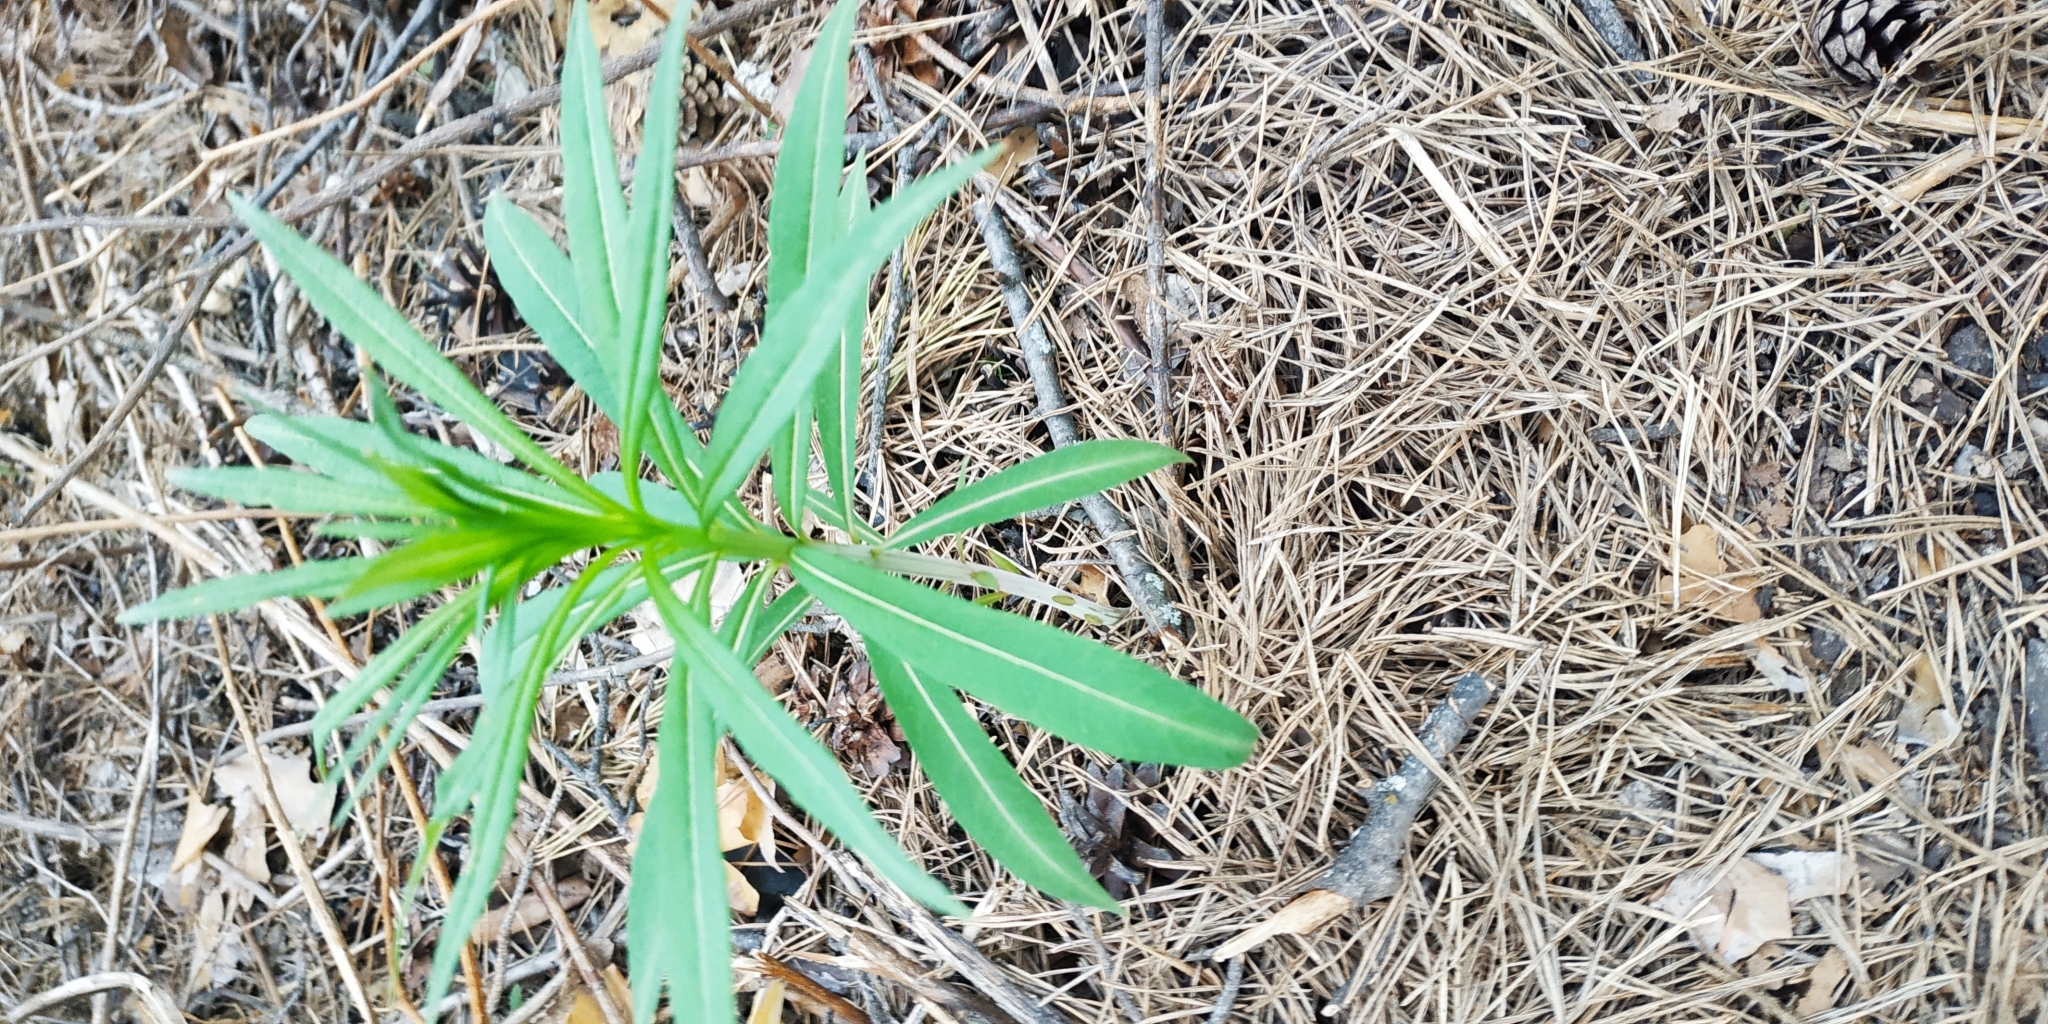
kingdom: Plantae
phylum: Tracheophyta
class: Magnoliopsida
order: Myrtales
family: Onagraceae
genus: Chamaenerion
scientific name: Chamaenerion angustifolium
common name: Fireweed
